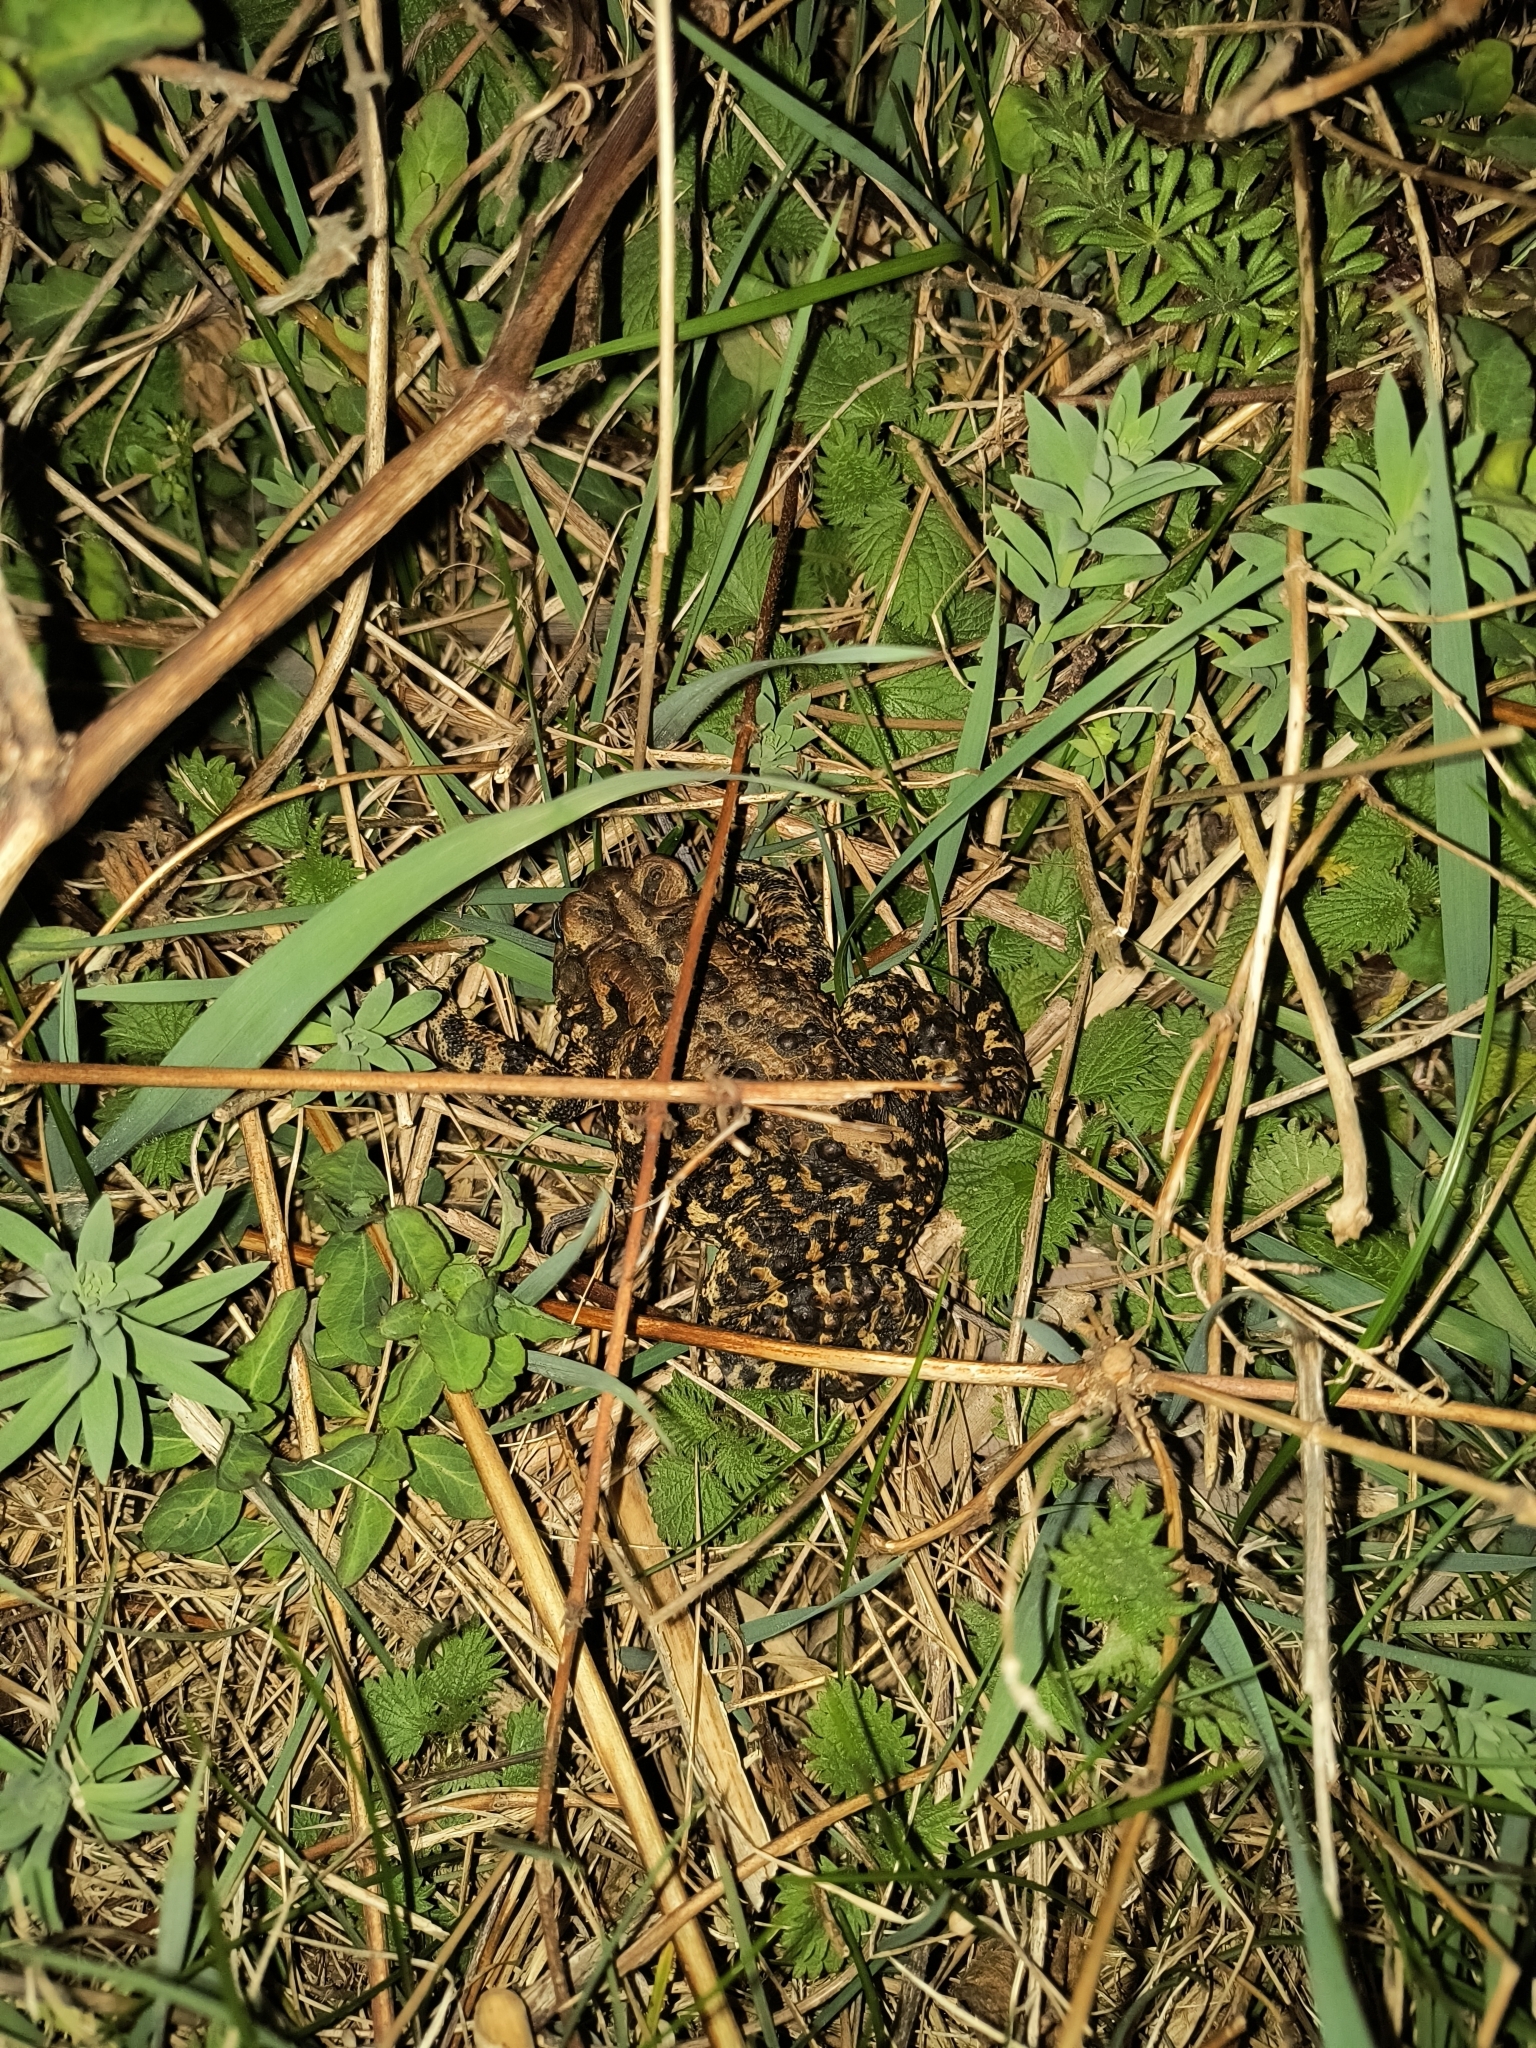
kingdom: Animalia
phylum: Chordata
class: Amphibia
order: Anura
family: Bufonidae
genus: Anaxyrus
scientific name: Anaxyrus americanus
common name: American toad
